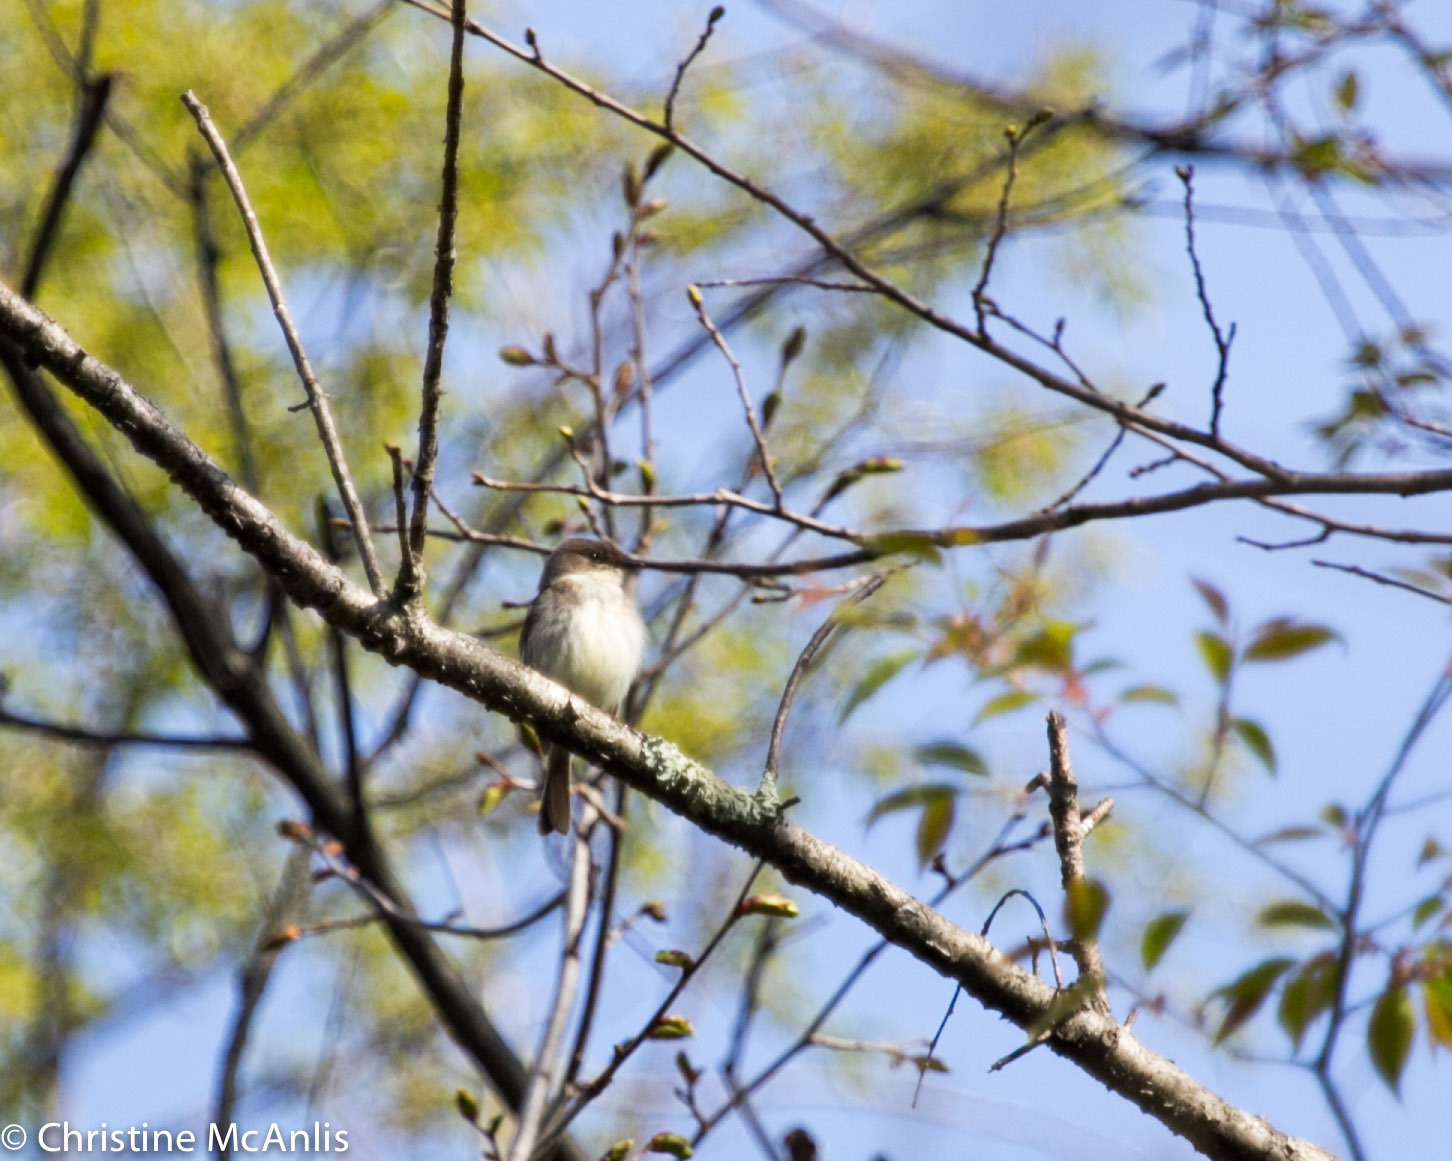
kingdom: Animalia
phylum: Chordata
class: Aves
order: Passeriformes
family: Tyrannidae
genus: Sayornis
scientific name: Sayornis phoebe
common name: Eastern phoebe
